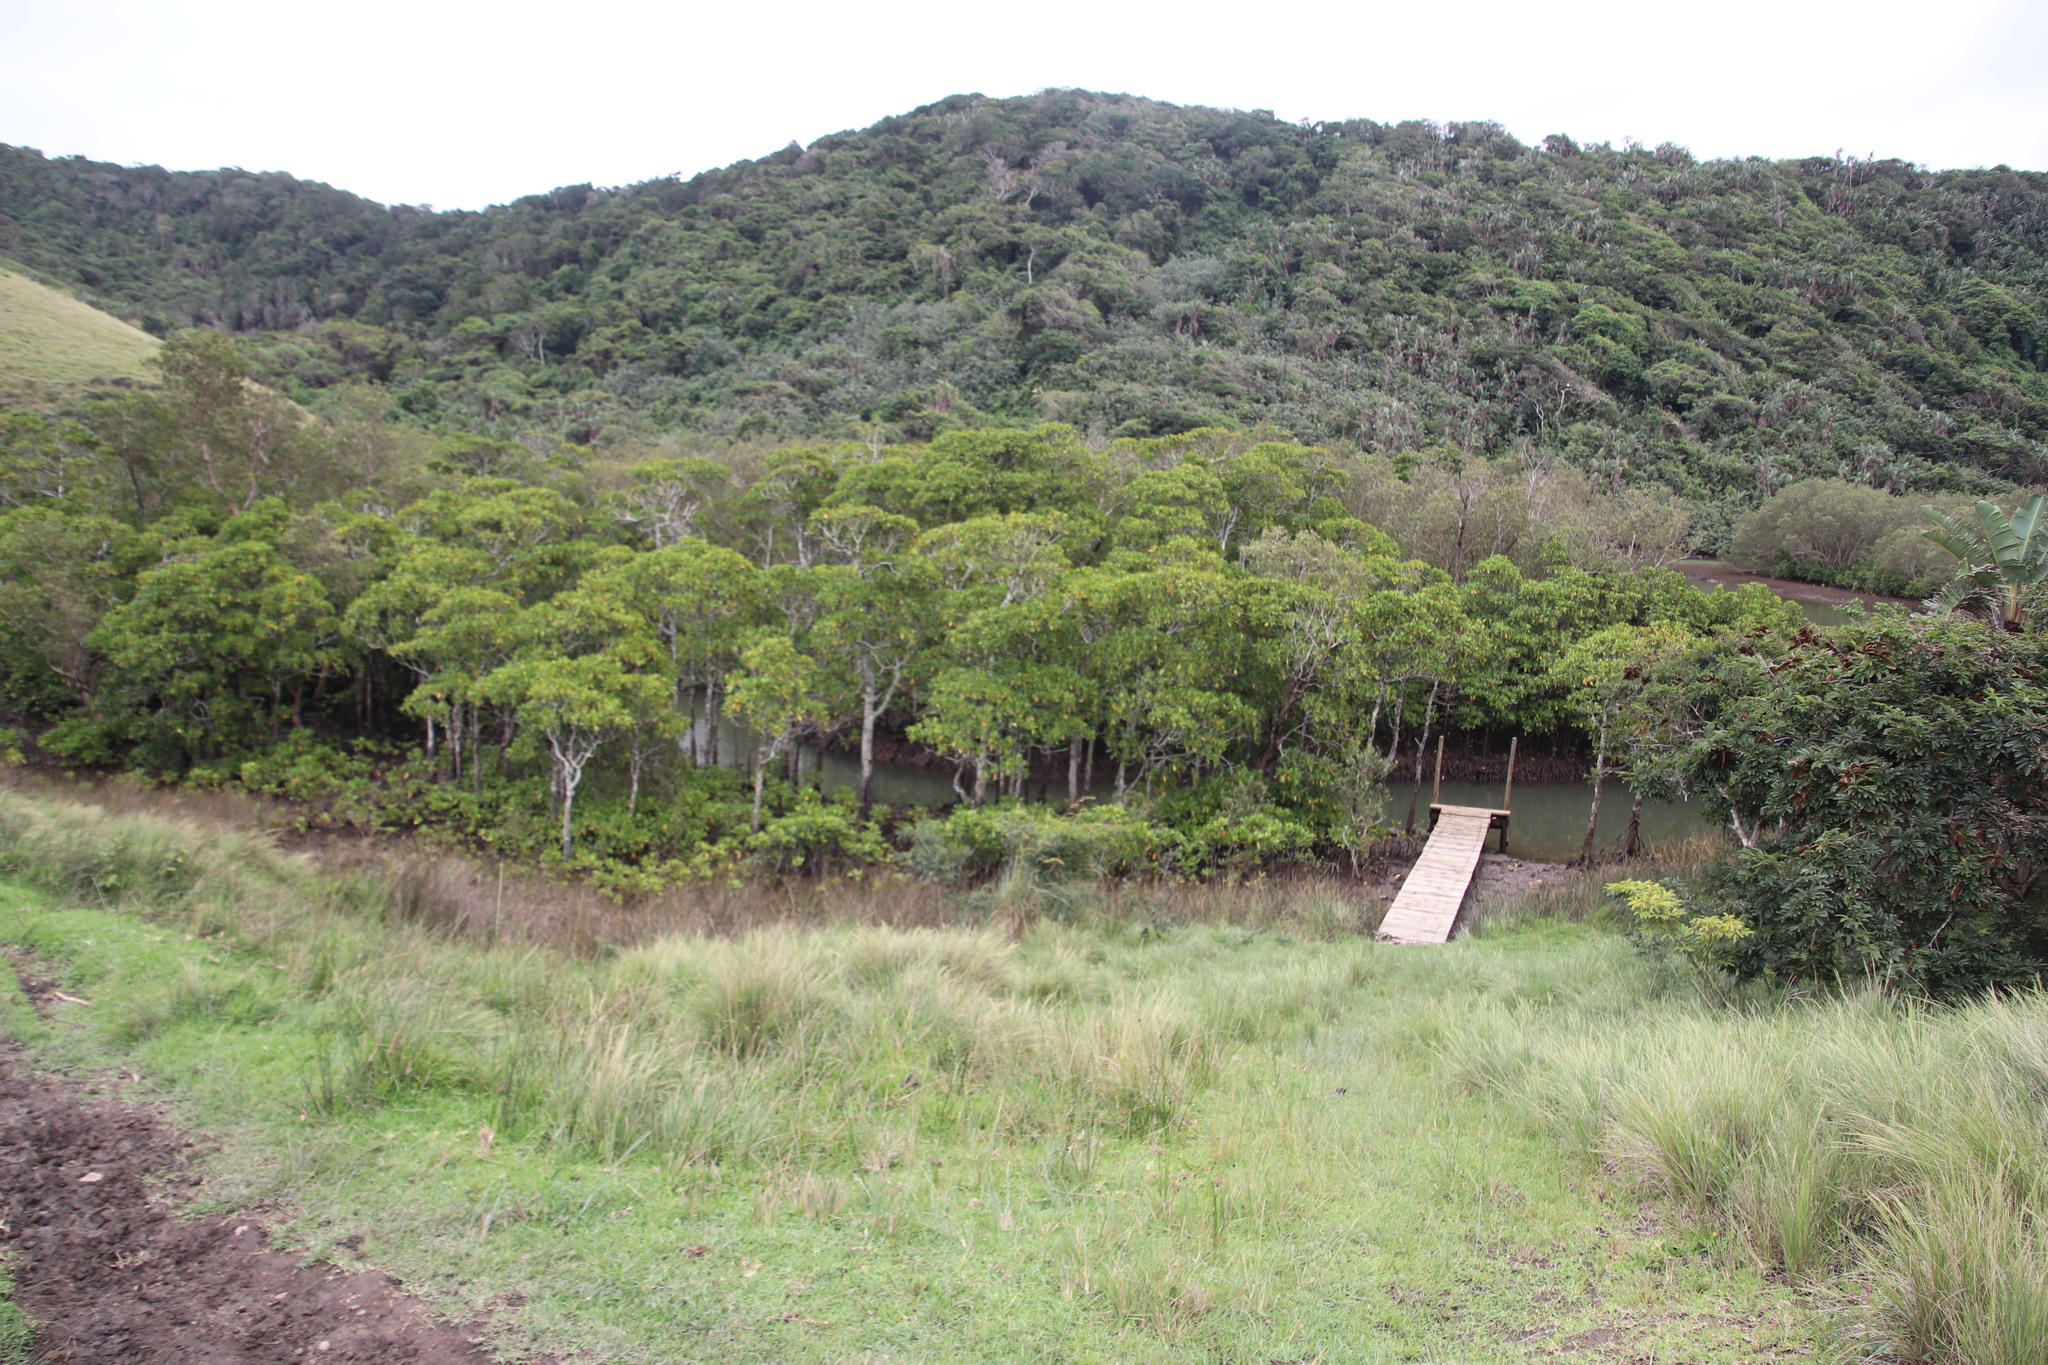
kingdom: Plantae
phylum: Tracheophyta
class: Magnoliopsida
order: Malpighiales
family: Rhizophoraceae
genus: Bruguiera
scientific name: Bruguiera gymnorhiza
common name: Oriental mangrove
